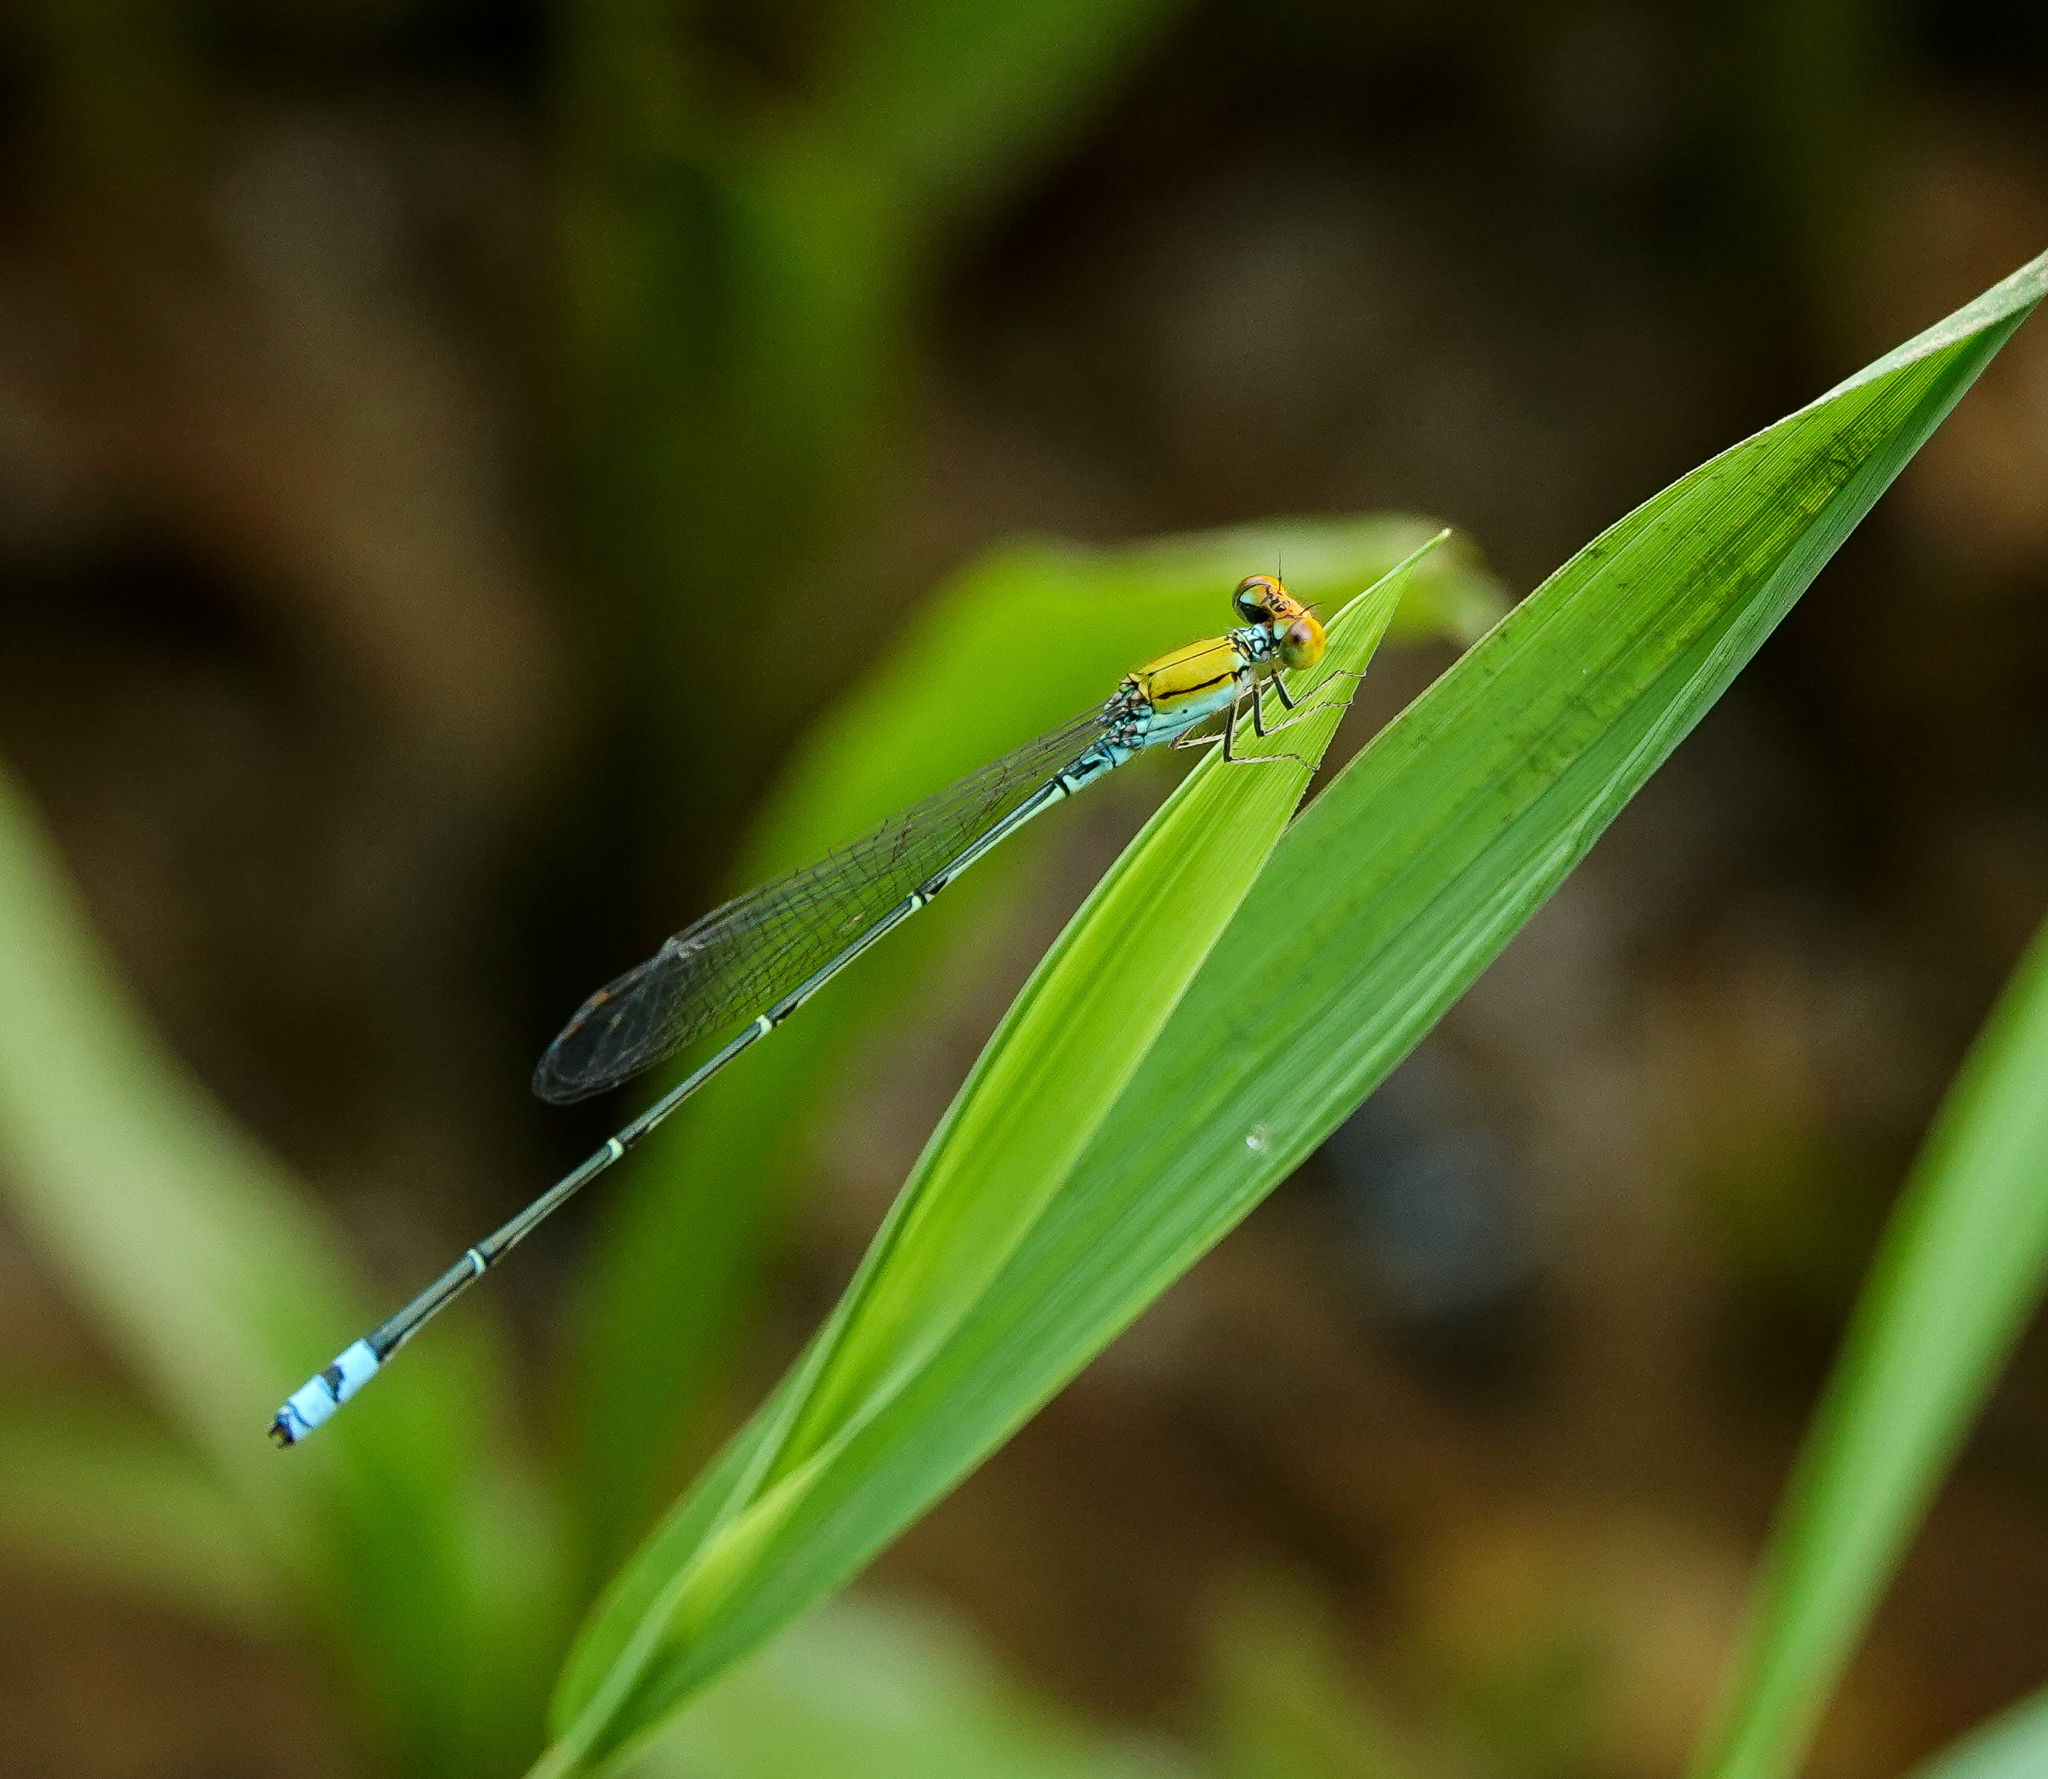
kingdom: Animalia
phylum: Arthropoda
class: Insecta
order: Odonata
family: Coenagrionidae
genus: Pseudagrion
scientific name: Pseudagrion rubriceps
